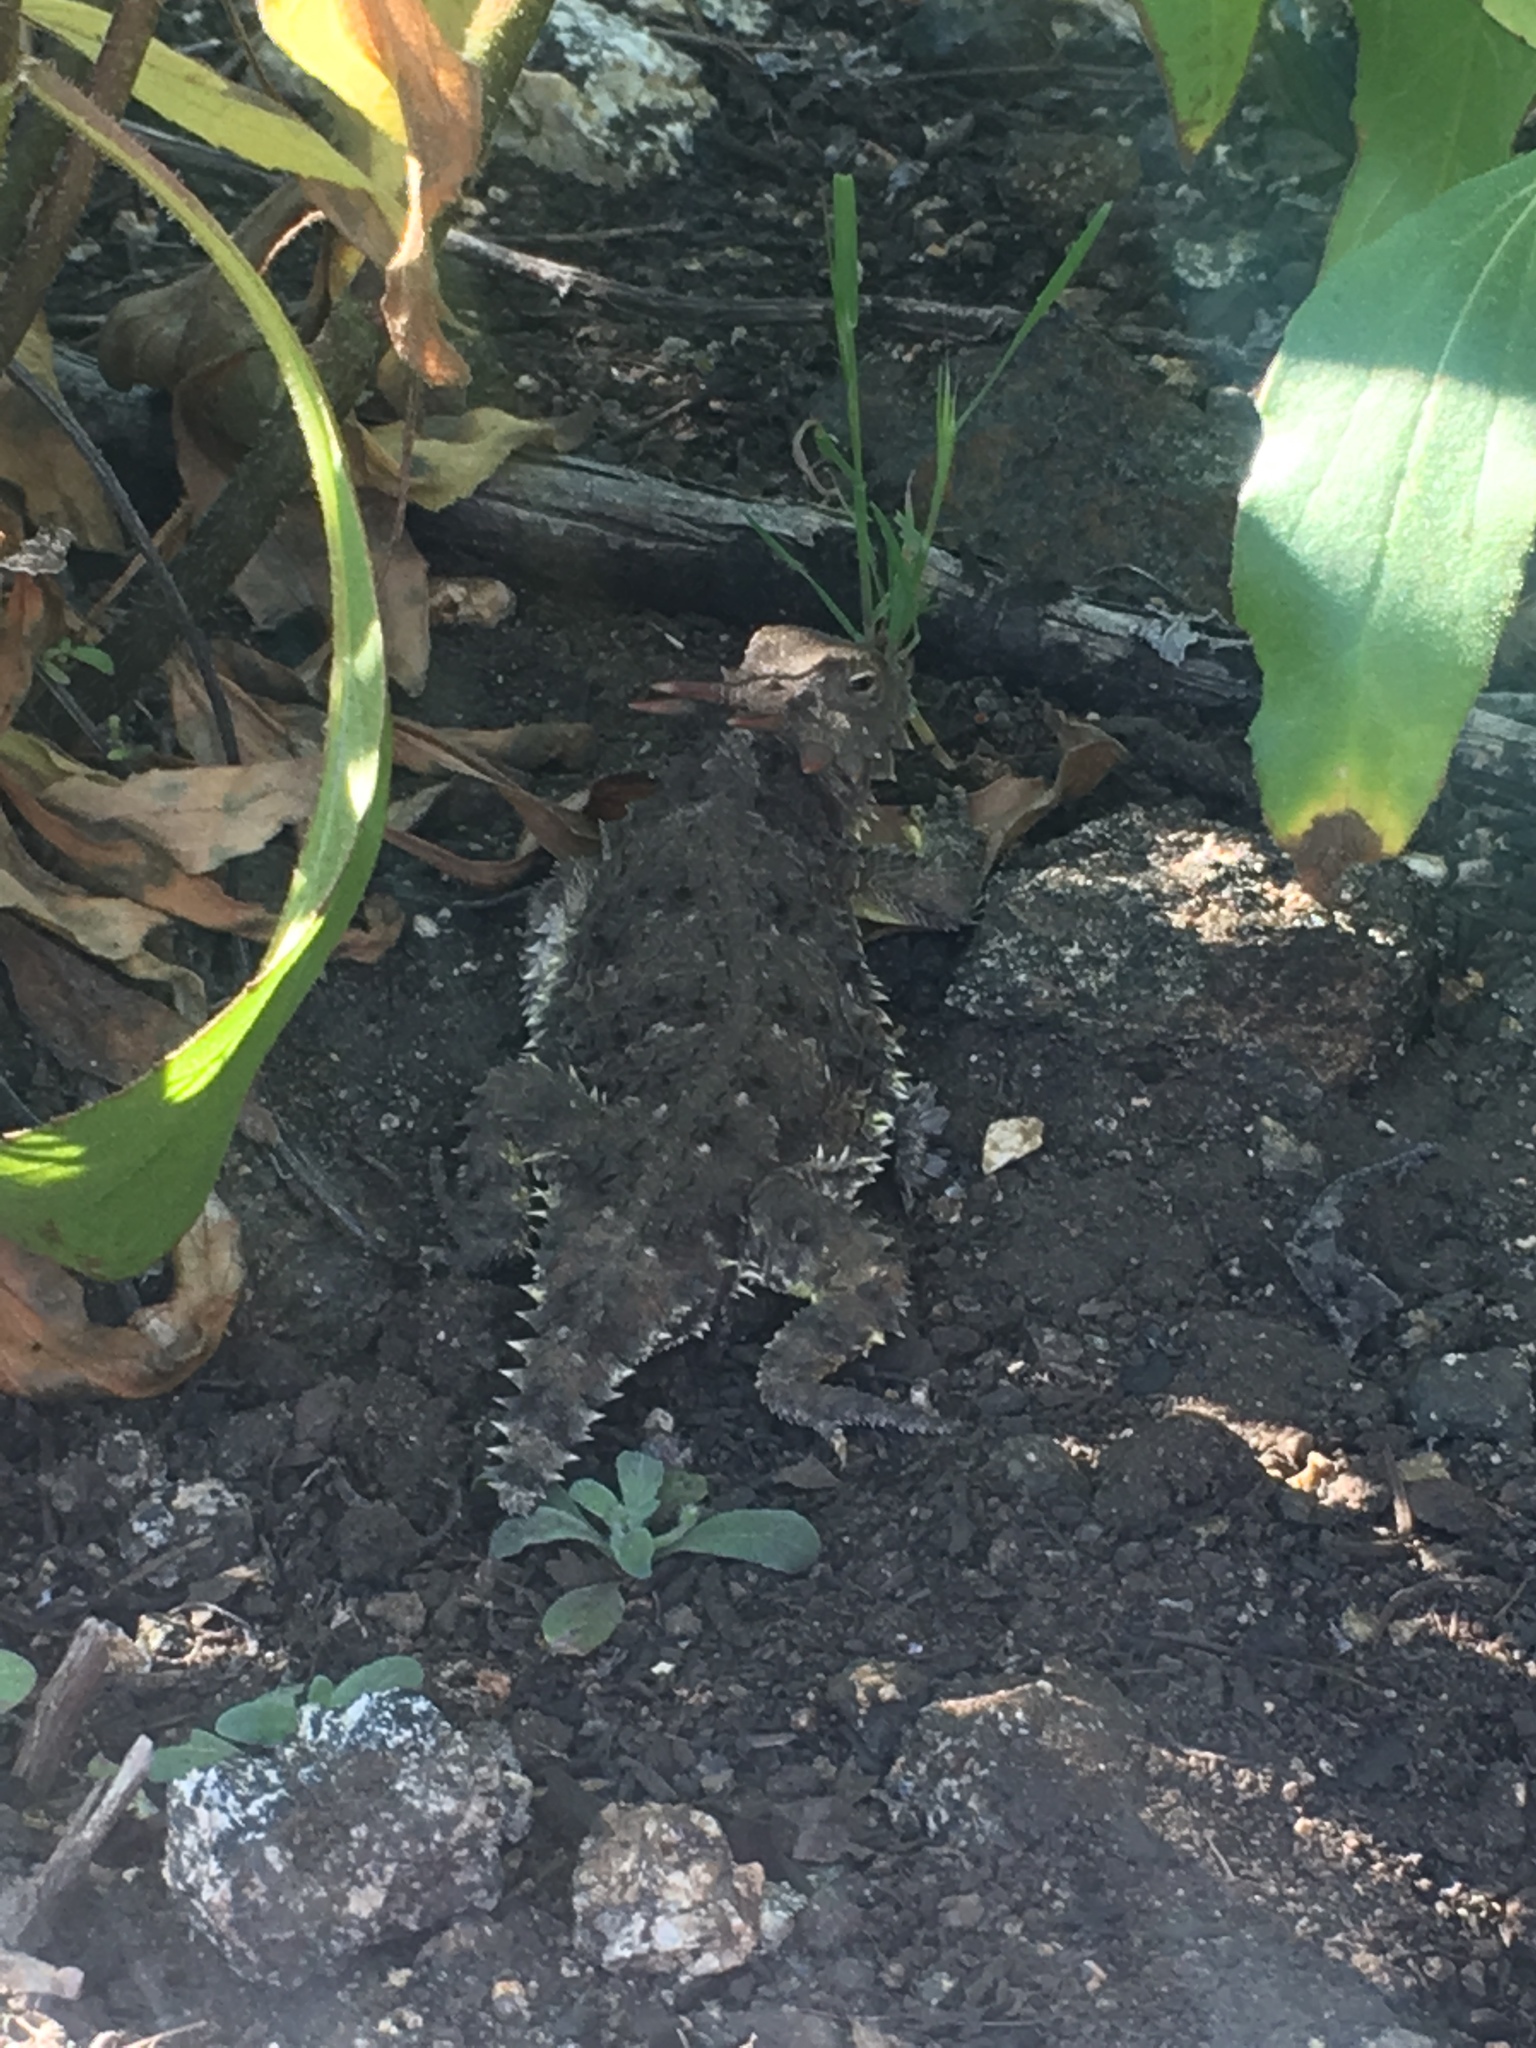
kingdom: Animalia
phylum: Chordata
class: Squamata
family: Phrynosomatidae
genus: Phrynosoma
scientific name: Phrynosoma blainvillii
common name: San diego horned lizard
